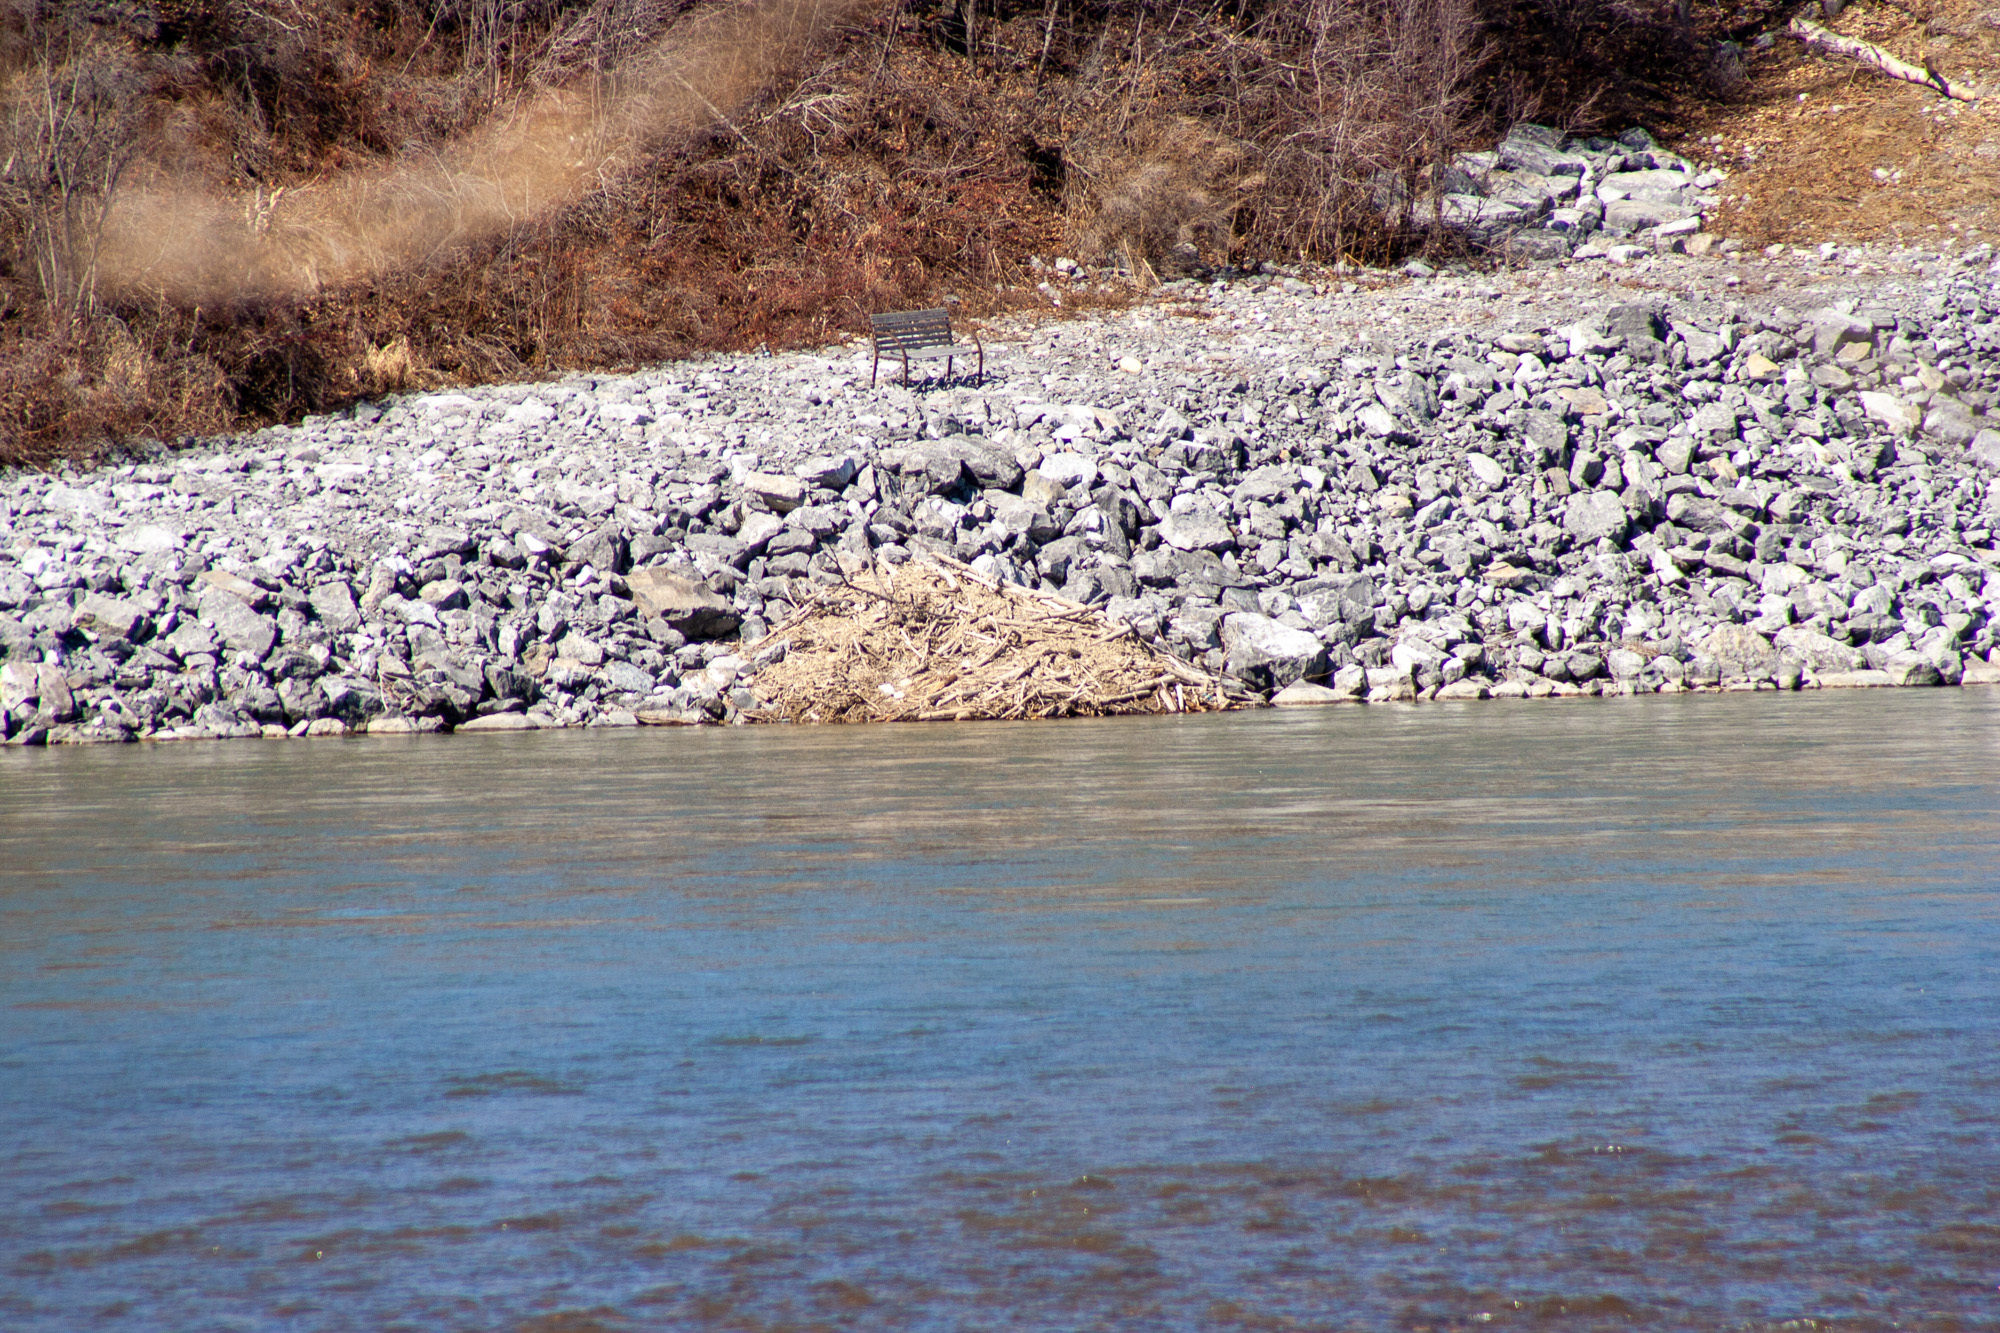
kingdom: Animalia
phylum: Chordata
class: Mammalia
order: Rodentia
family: Castoridae
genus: Castor
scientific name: Castor canadensis
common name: American beaver
